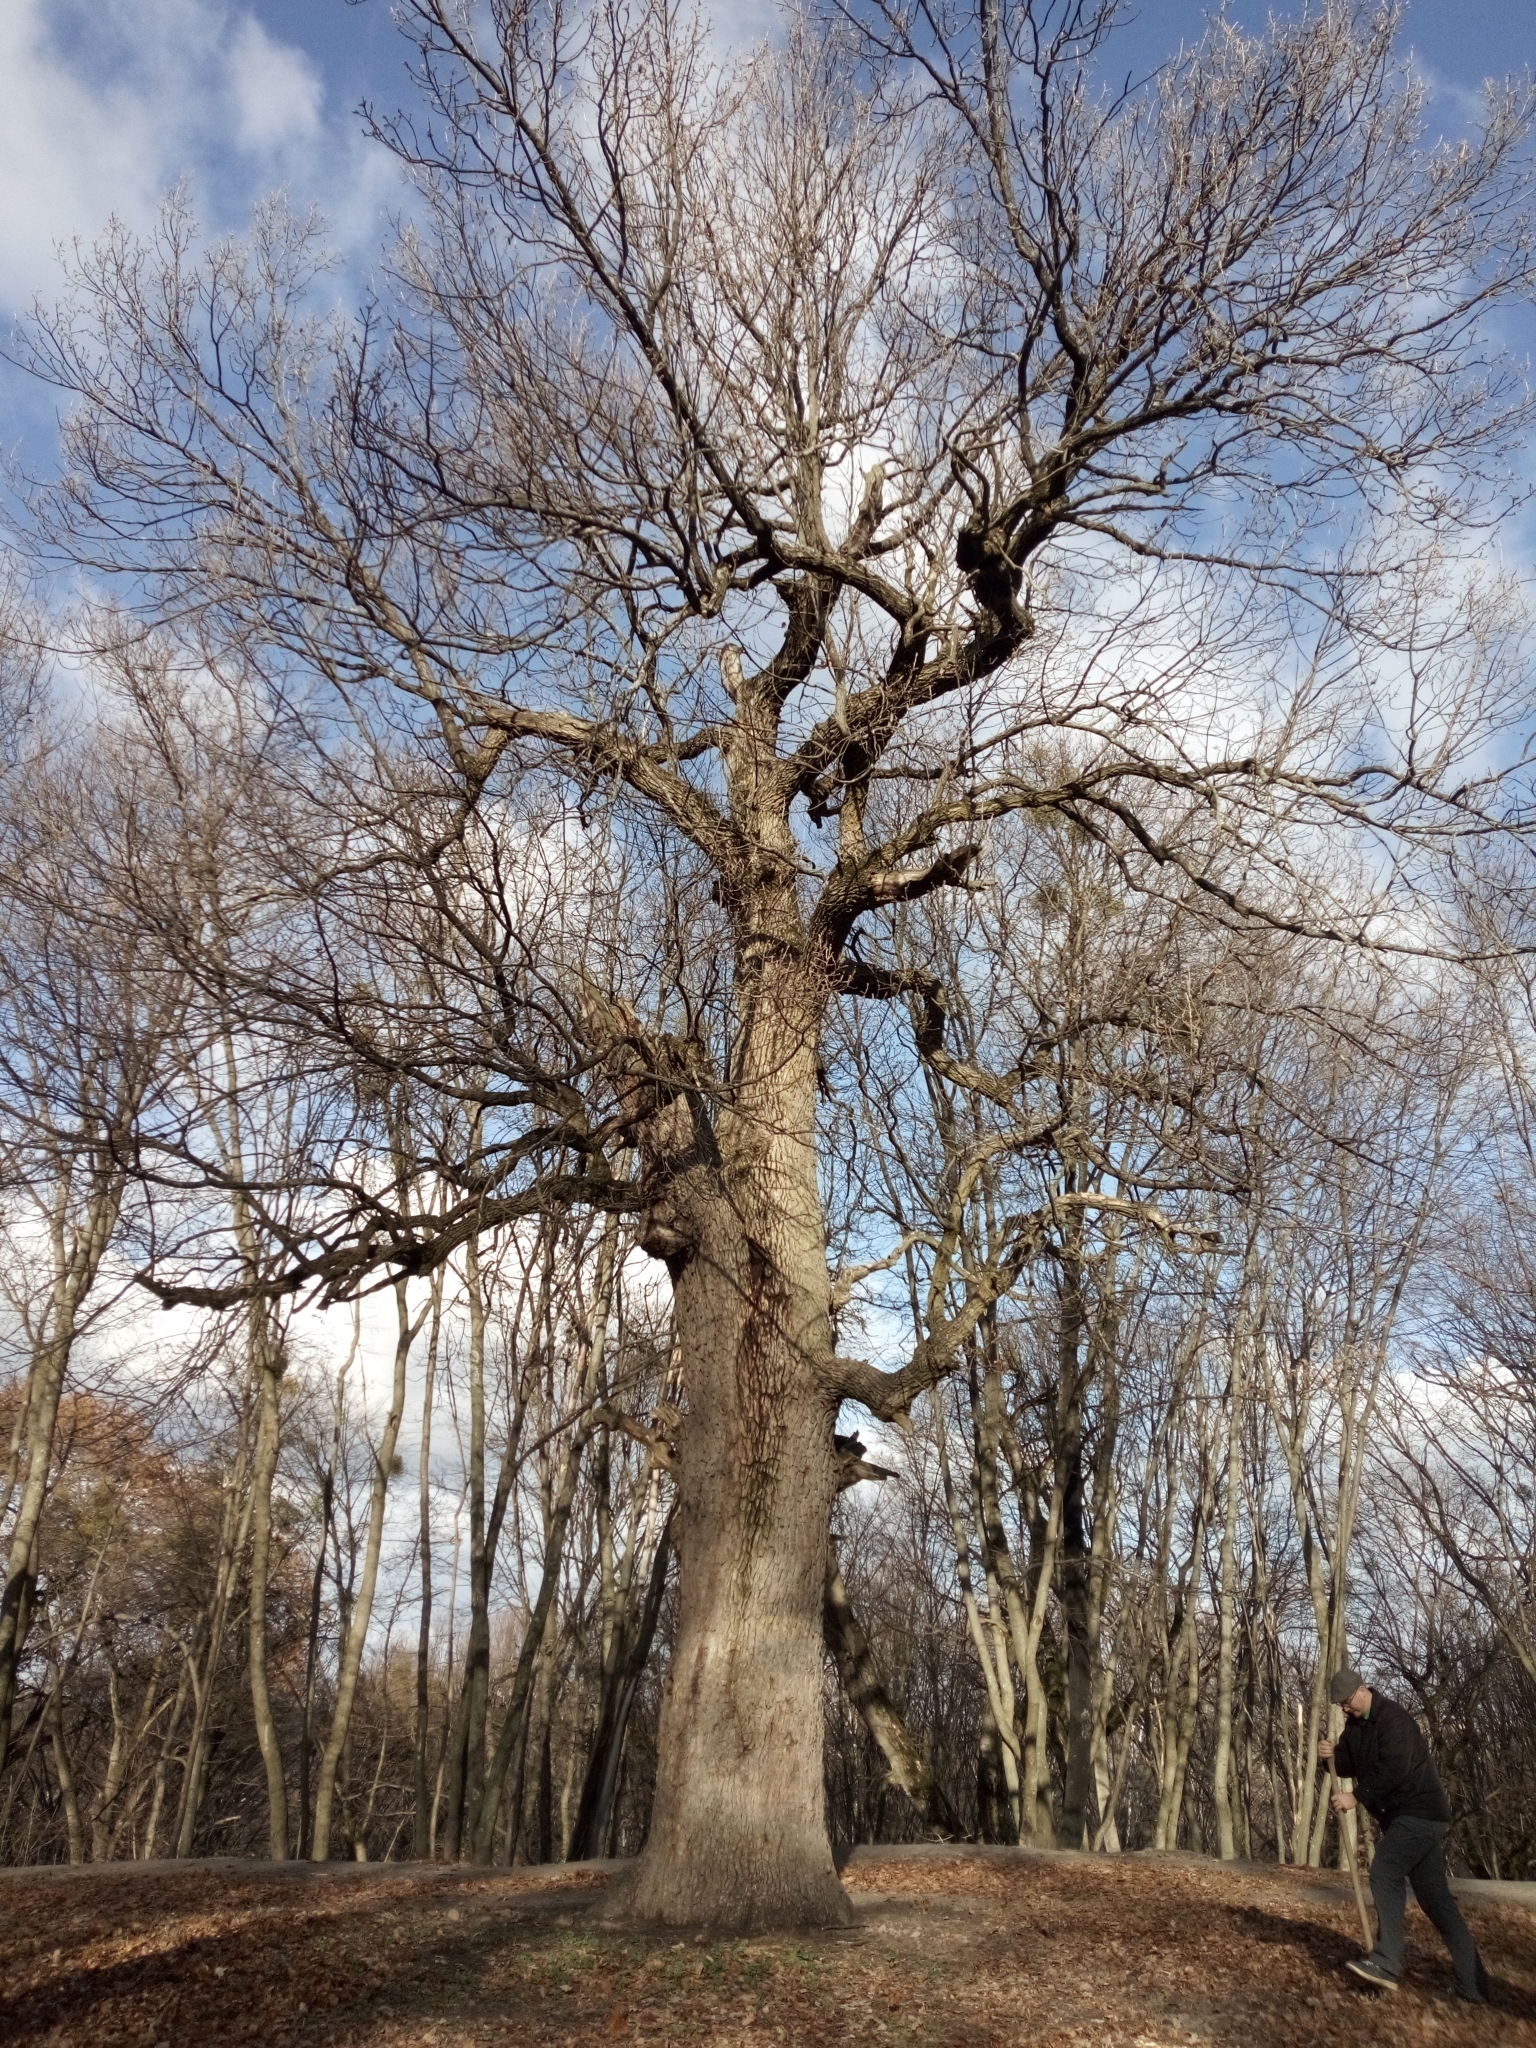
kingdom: Plantae
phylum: Tracheophyta
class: Magnoliopsida
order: Fagales
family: Fagaceae
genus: Quercus
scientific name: Quercus robur
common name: Pedunculate oak
